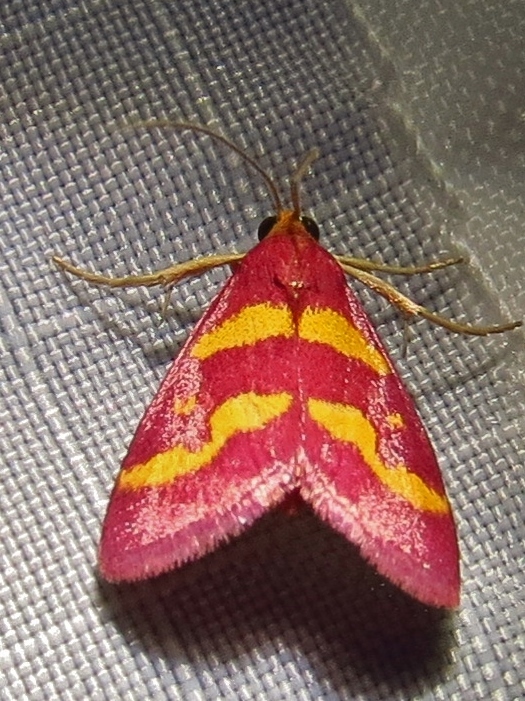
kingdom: Animalia
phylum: Arthropoda
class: Insecta
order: Lepidoptera
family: Crambidae
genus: Pyrausta
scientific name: Pyrausta tyralis
